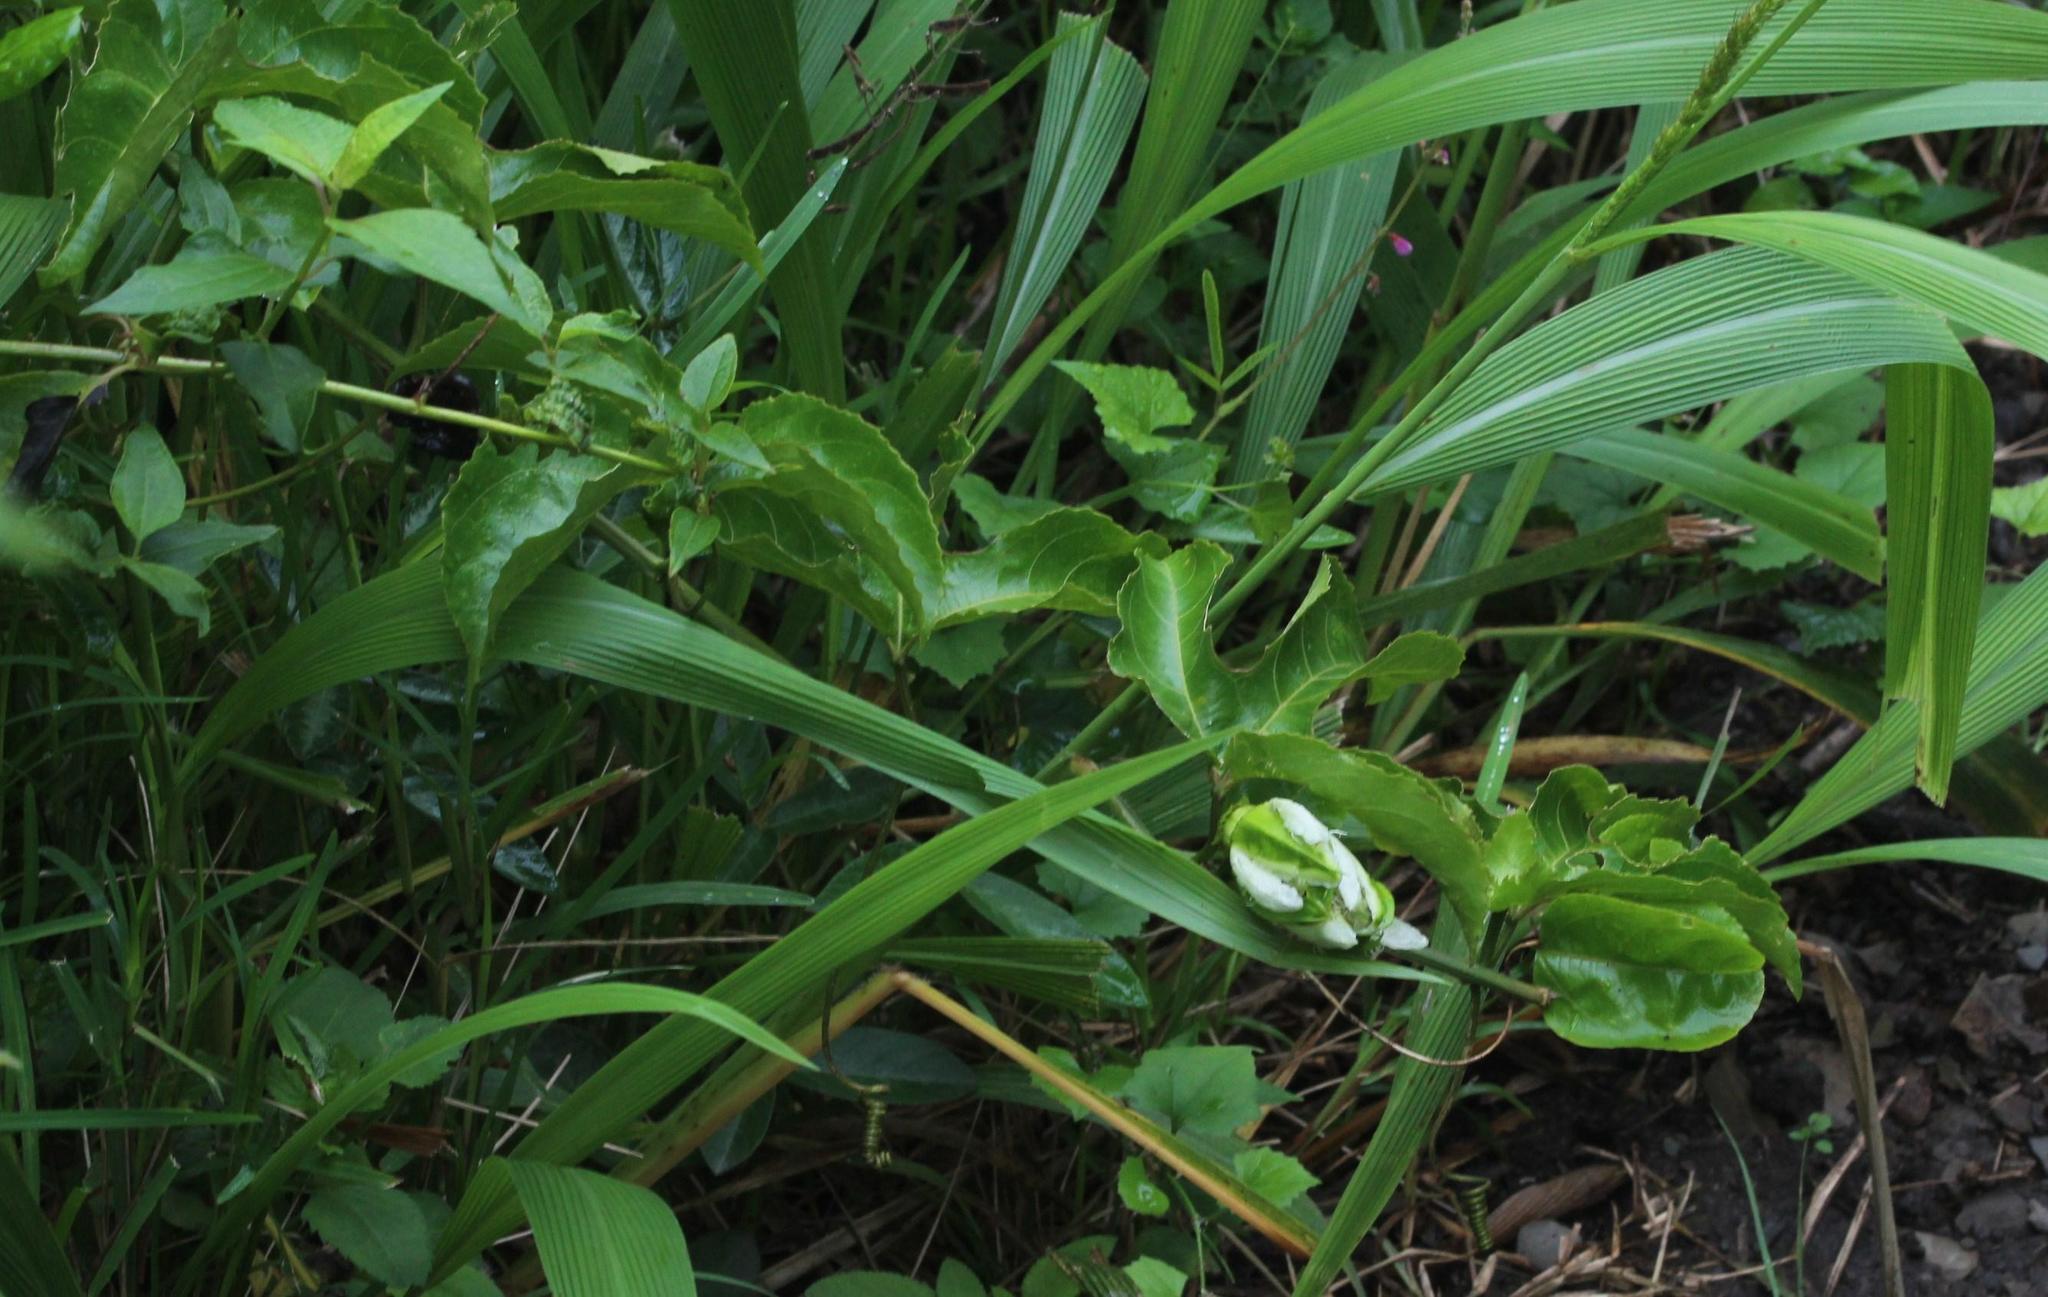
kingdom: Plantae
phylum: Tracheophyta
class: Magnoliopsida
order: Malpighiales
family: Passifloraceae
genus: Passiflora
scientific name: Passiflora edulis
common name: Purple granadilla
